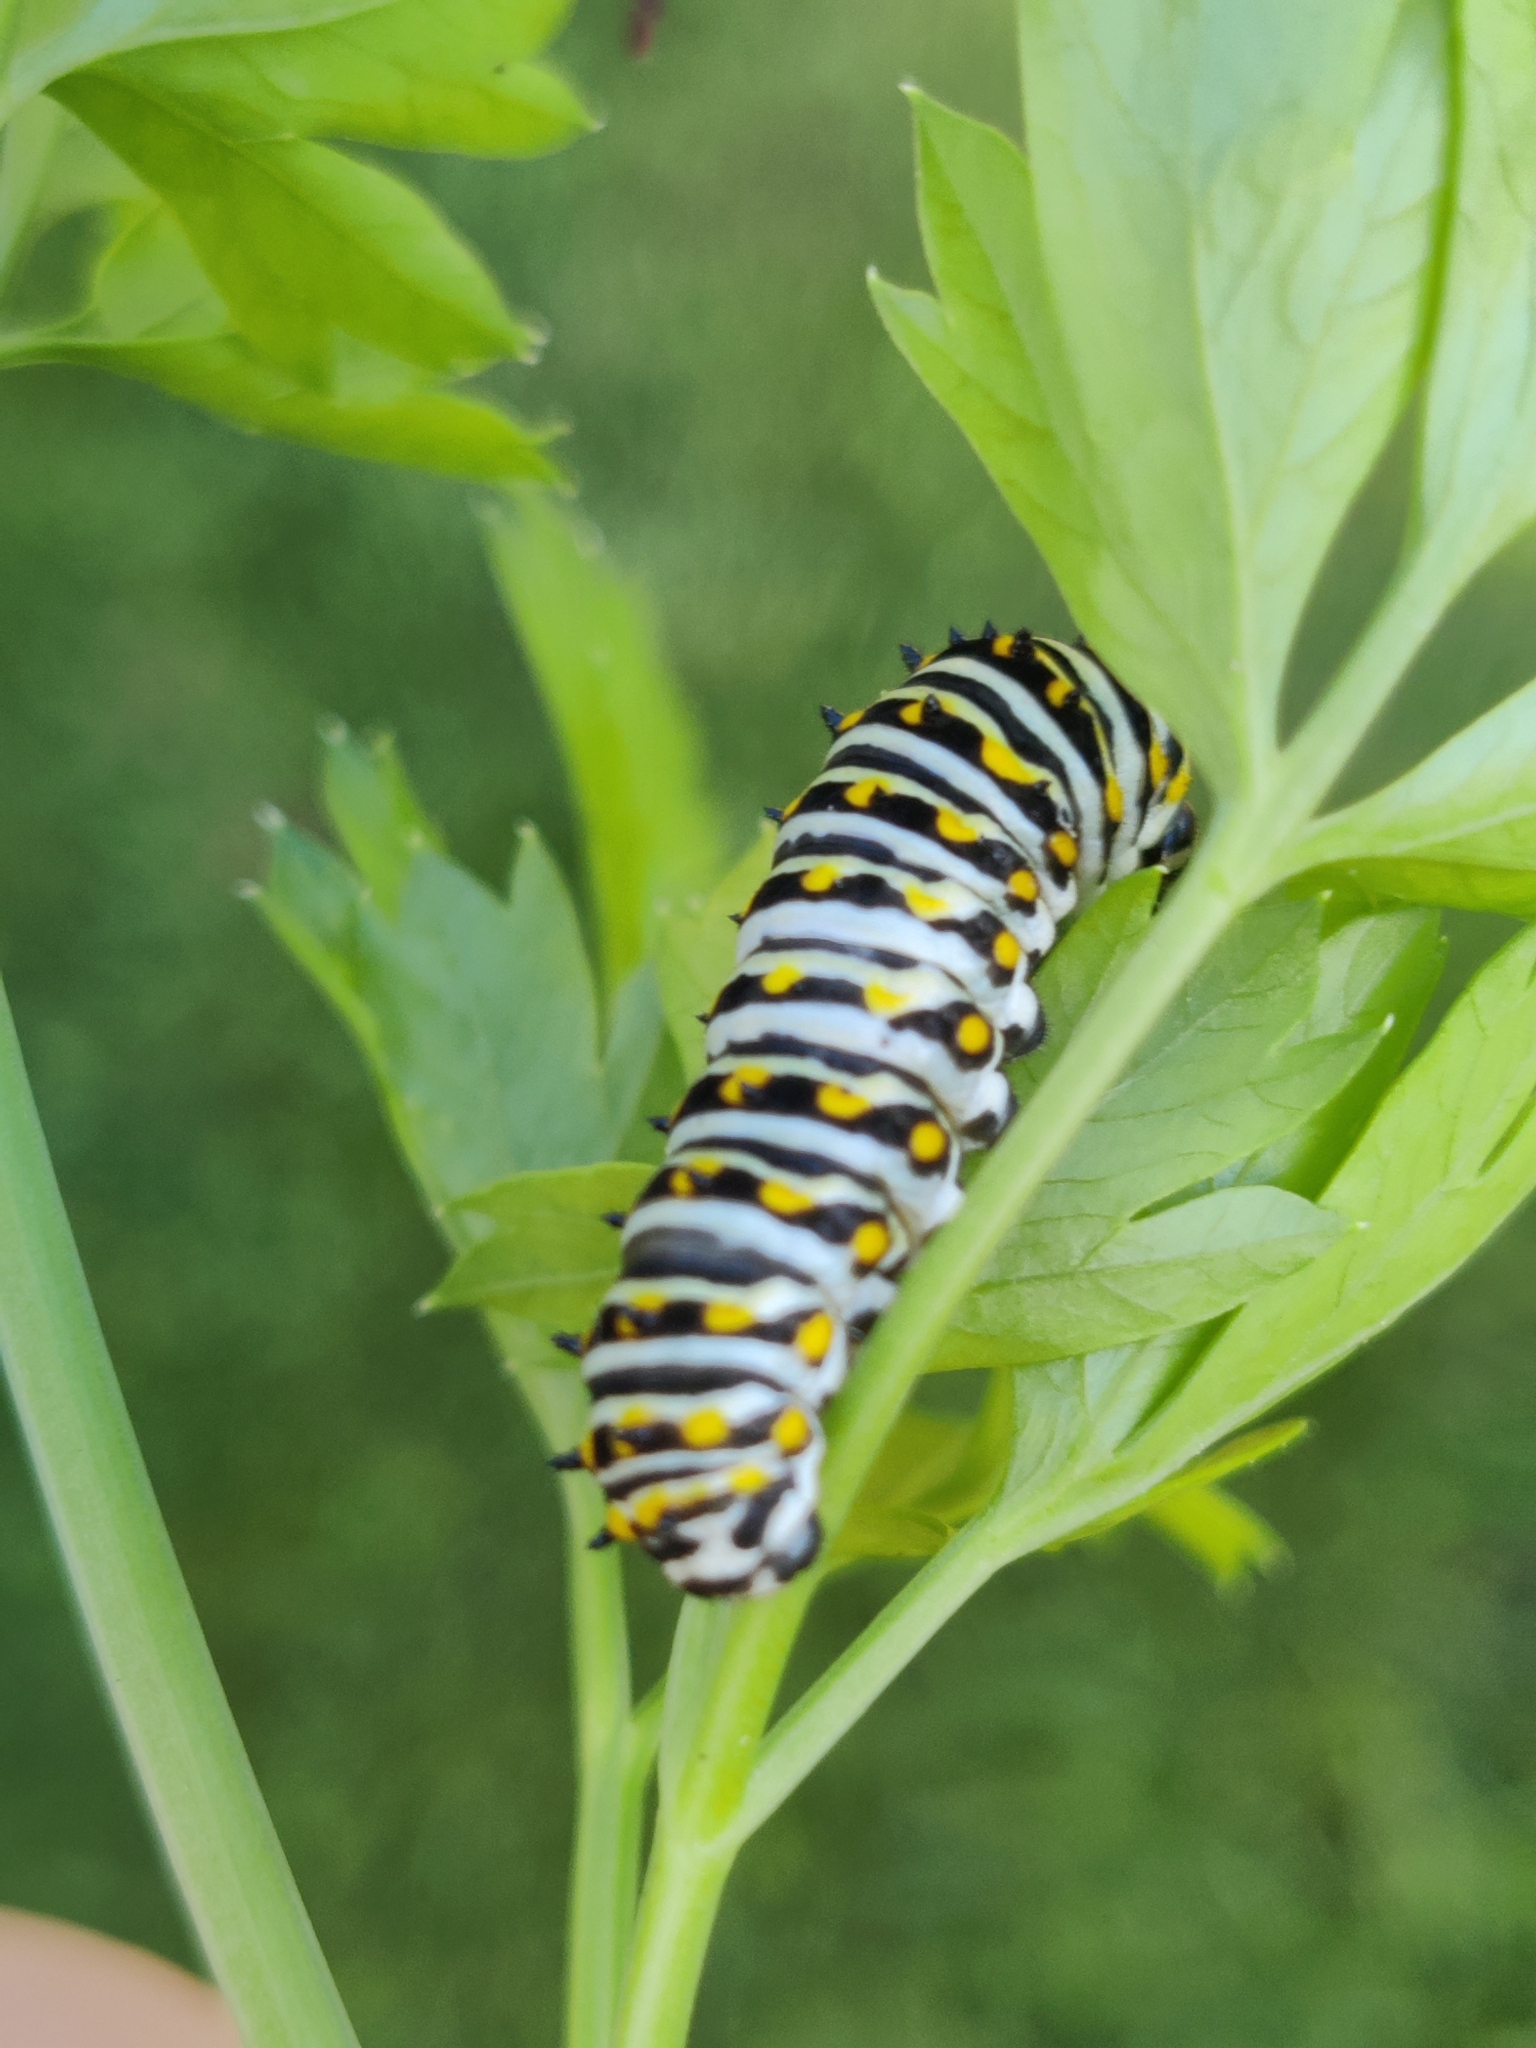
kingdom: Animalia
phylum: Arthropoda
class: Insecta
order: Lepidoptera
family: Papilionidae
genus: Papilio
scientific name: Papilio polyxenes
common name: Black swallowtail
